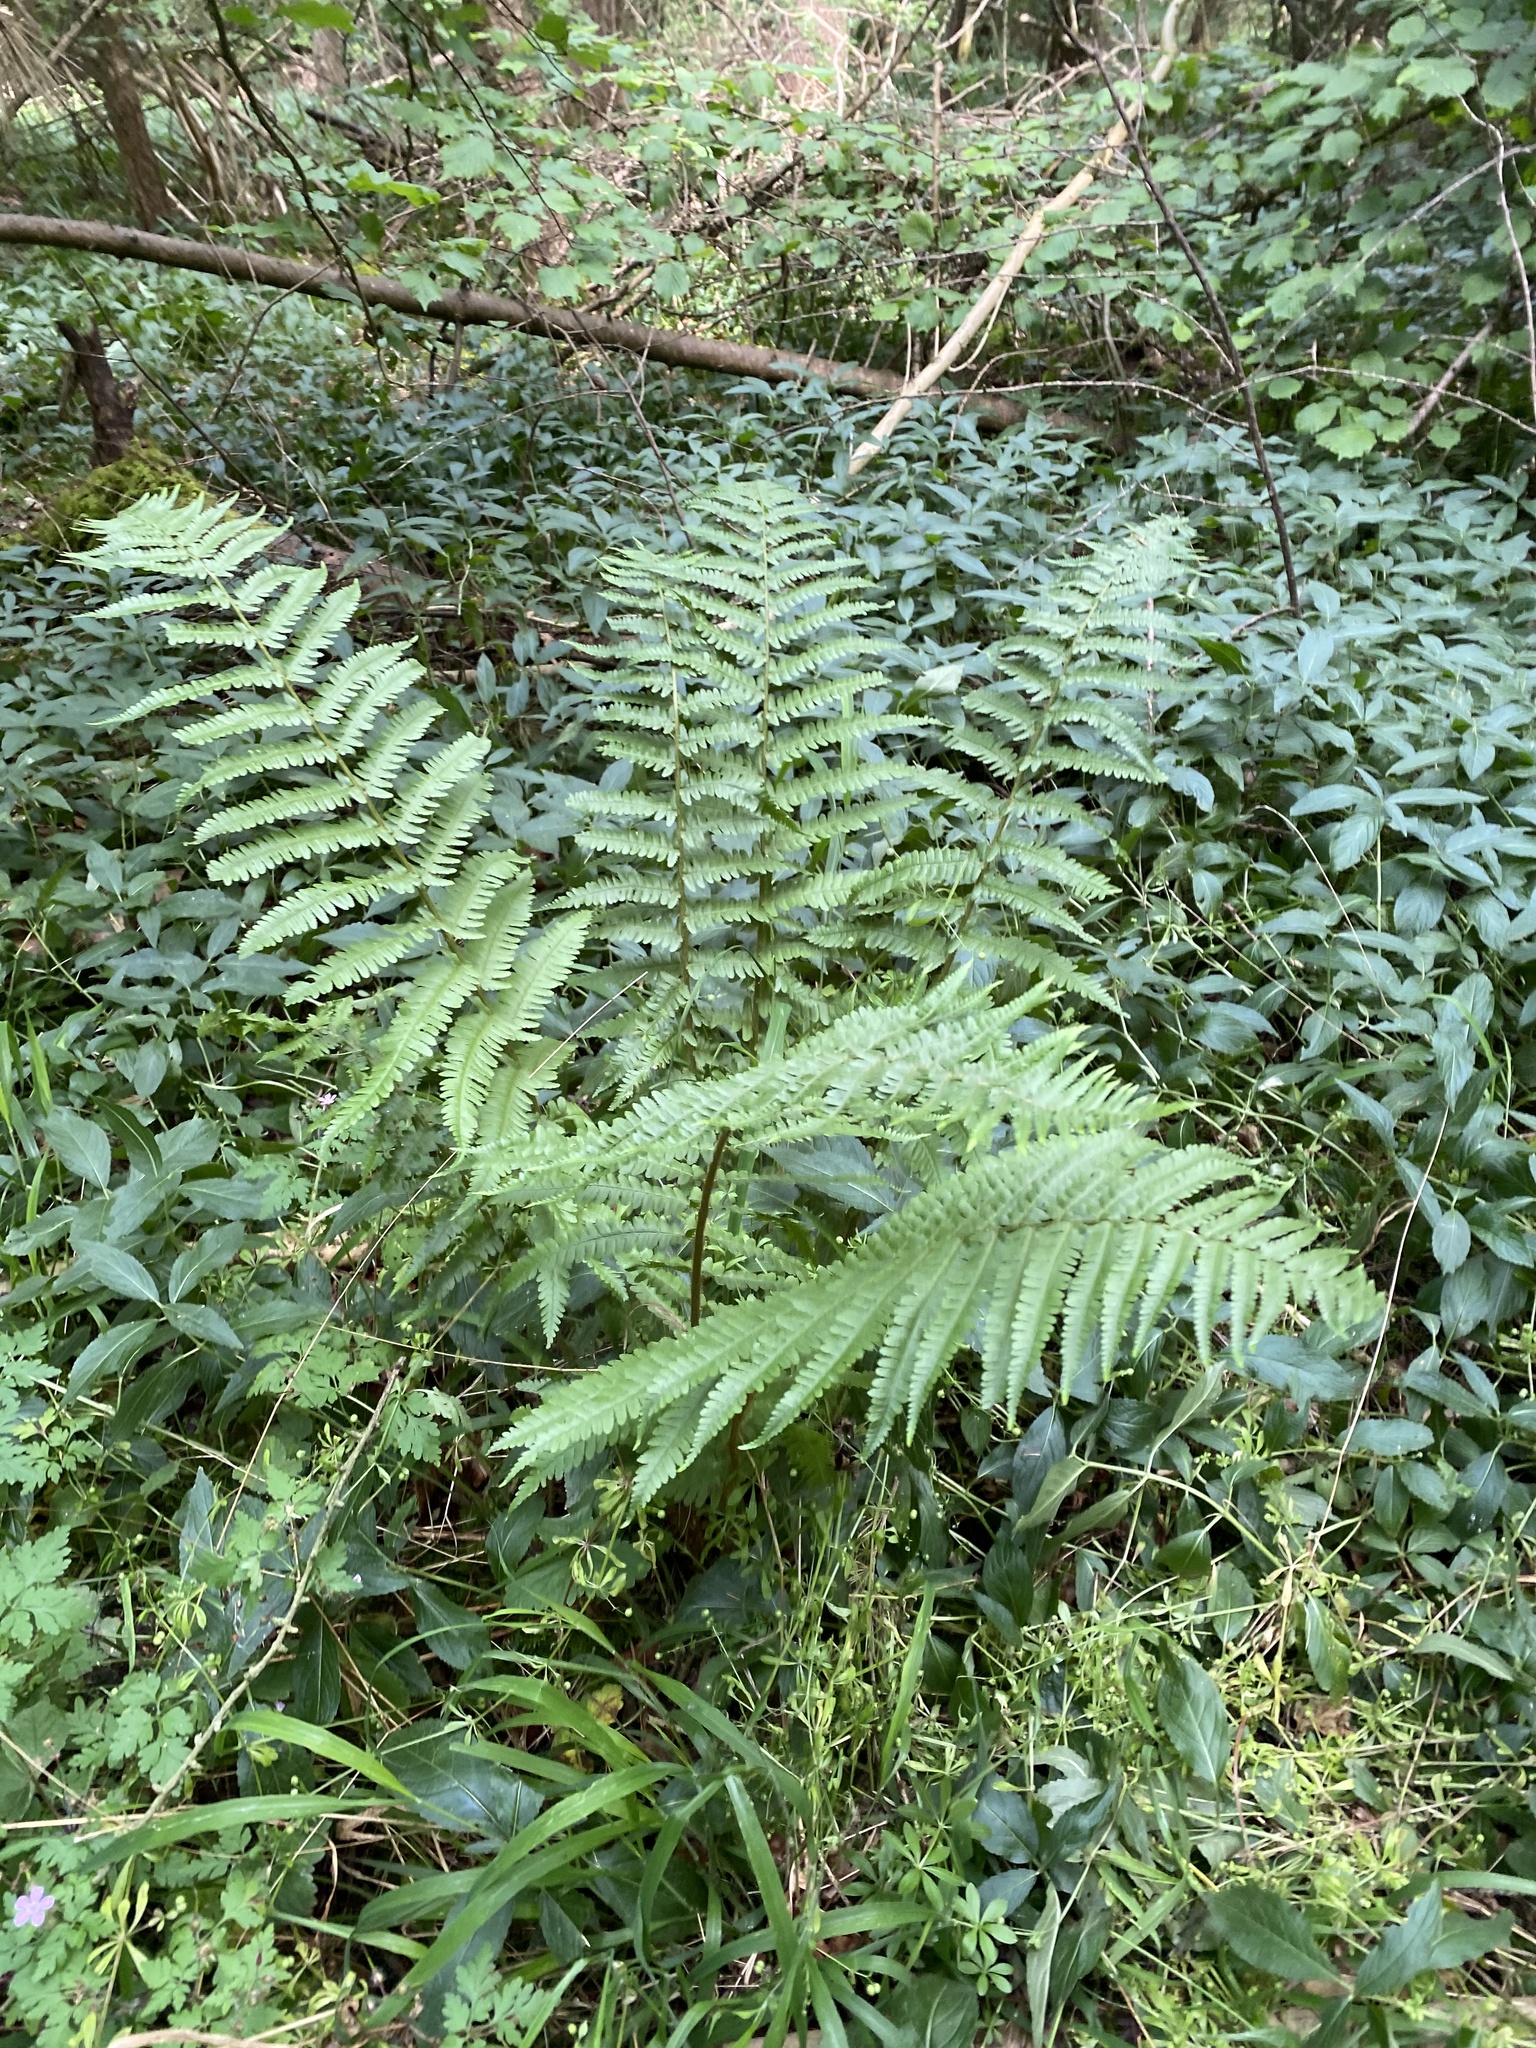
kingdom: Plantae
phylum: Tracheophyta
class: Polypodiopsida
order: Polypodiales
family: Dryopteridaceae
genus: Dryopteris
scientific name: Dryopteris filix-mas
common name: Male fern
